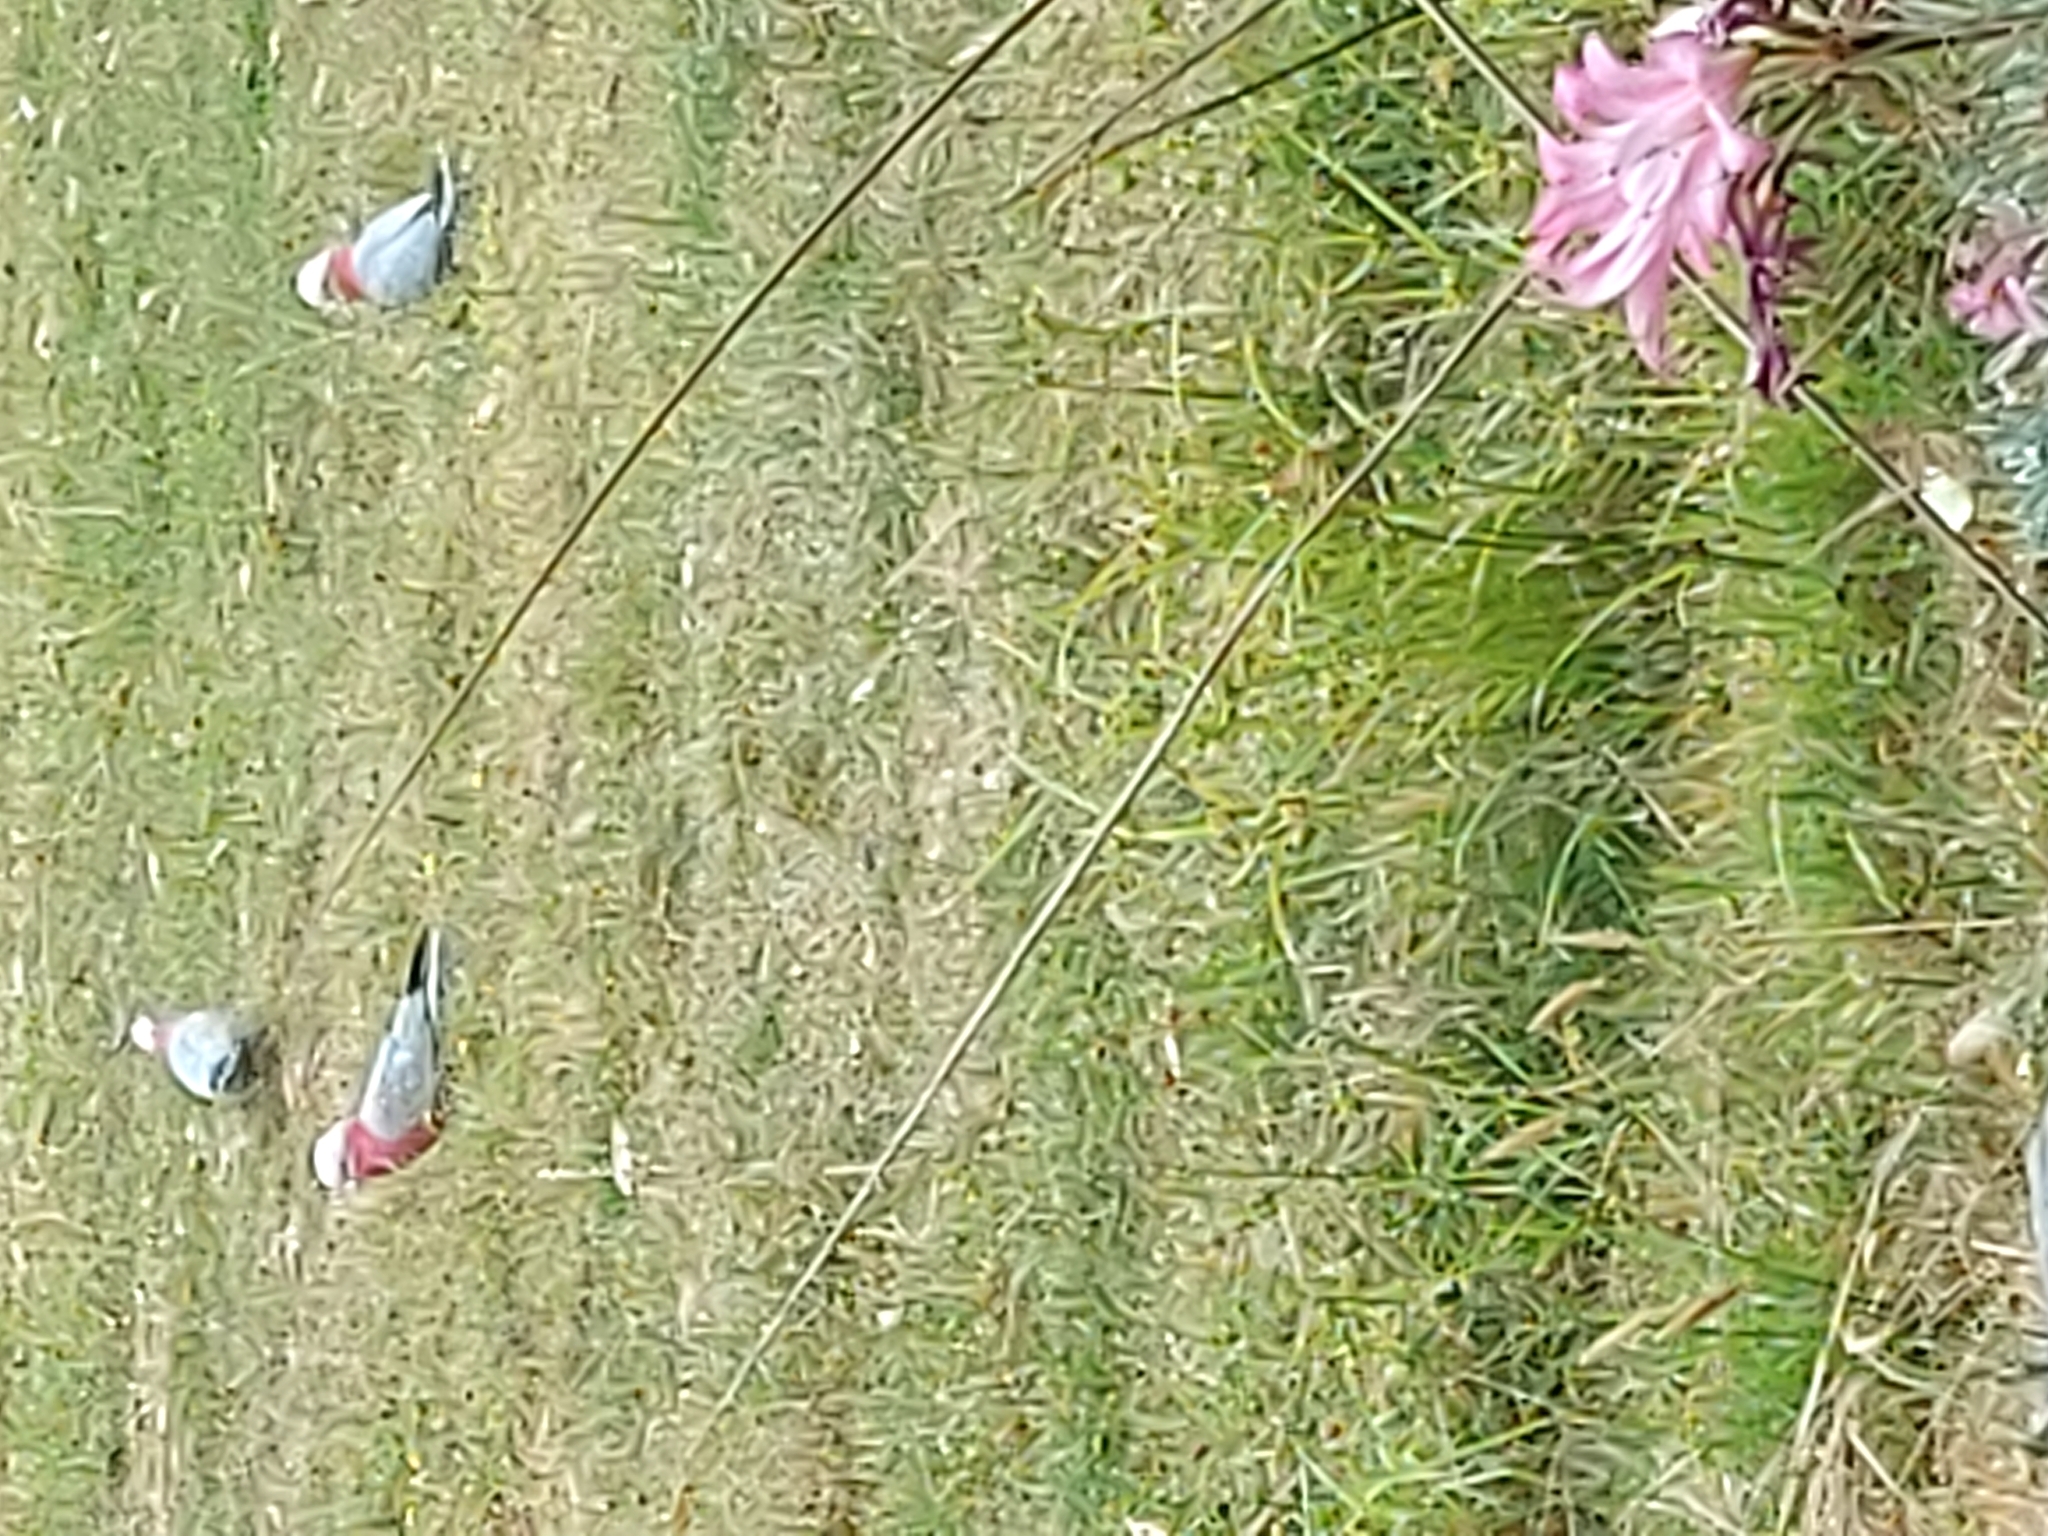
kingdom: Animalia
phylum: Chordata
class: Aves
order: Psittaciformes
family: Psittacidae
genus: Eolophus
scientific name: Eolophus roseicapilla
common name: Galah
